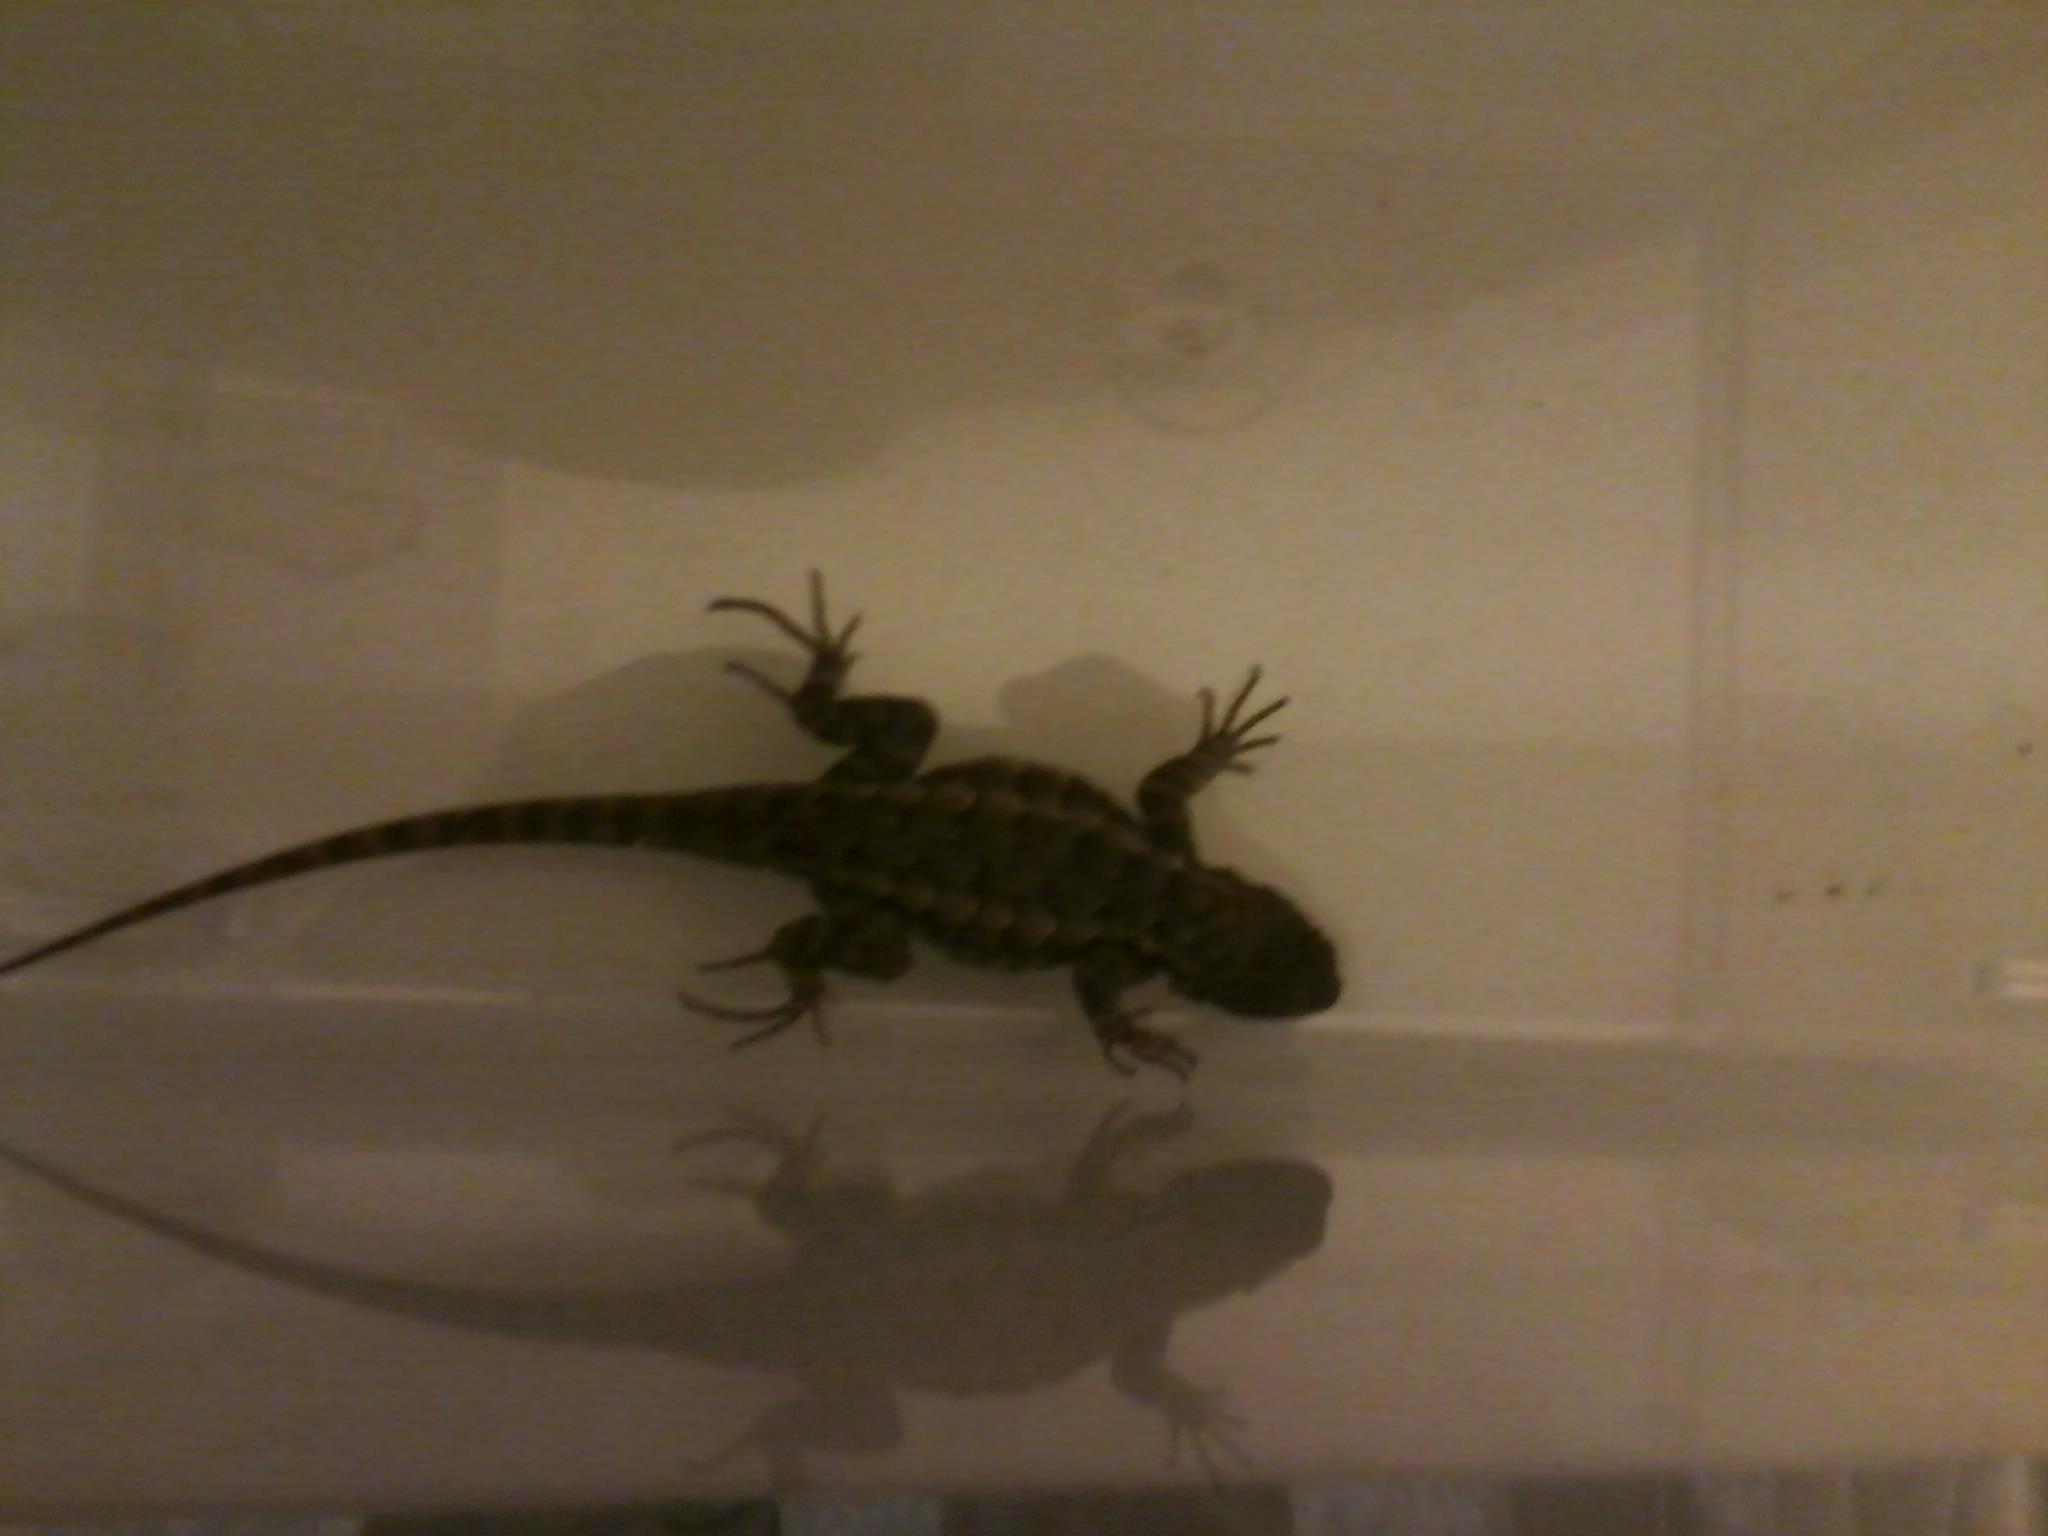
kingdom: Animalia
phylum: Chordata
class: Squamata
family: Phrynosomatidae
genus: Sceloporus
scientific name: Sceloporus occidentalis
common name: Western fence lizard
